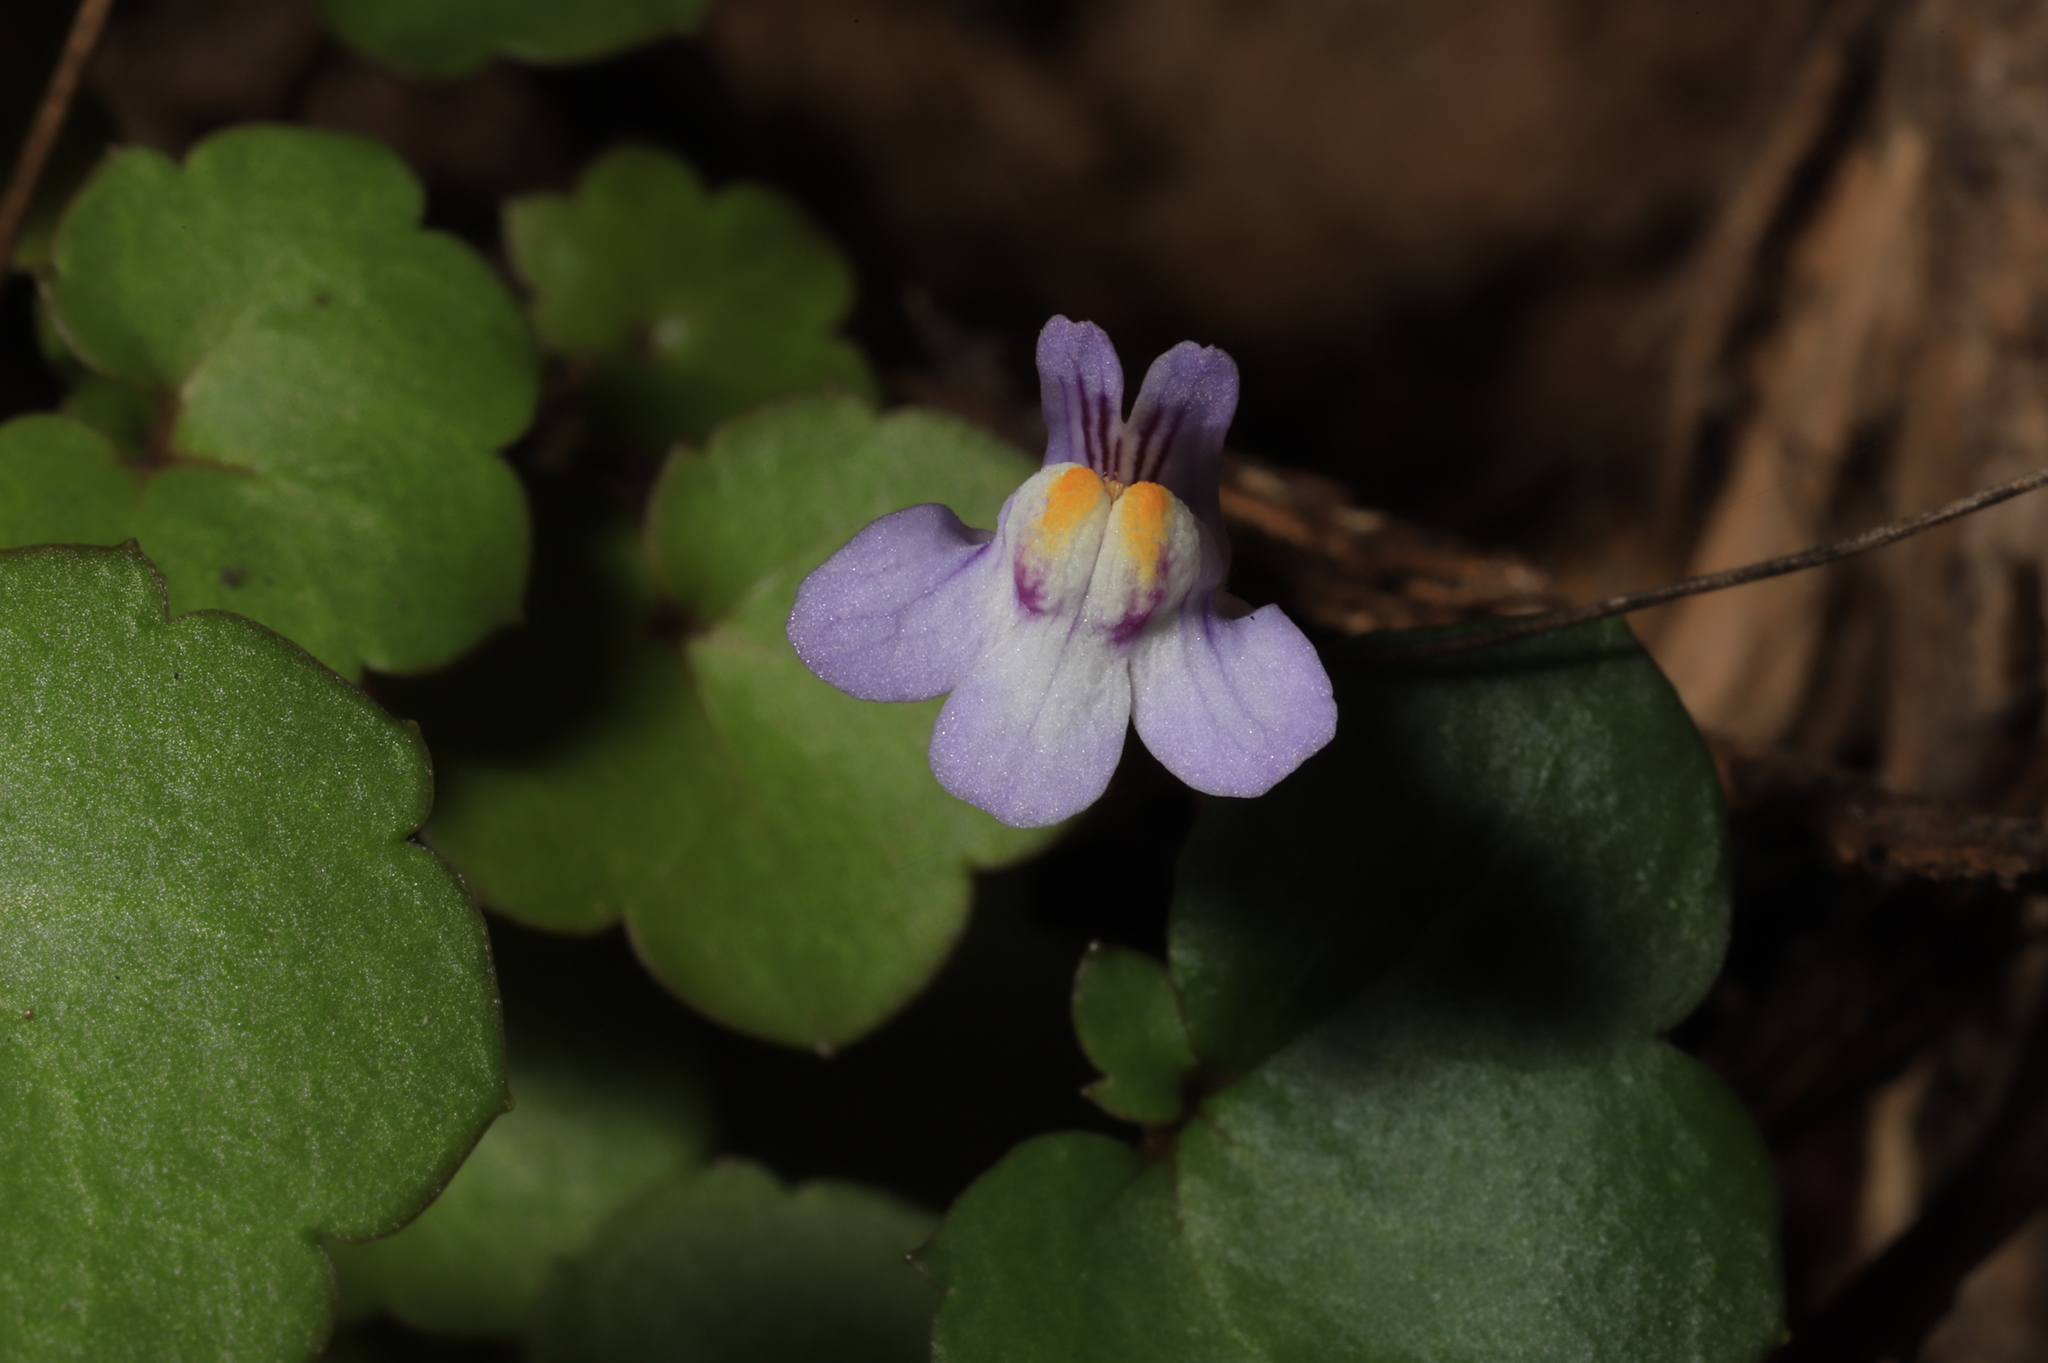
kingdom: Plantae
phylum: Tracheophyta
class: Magnoliopsida
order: Lamiales
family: Plantaginaceae
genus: Cymbalaria
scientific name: Cymbalaria muralis
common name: Ivy-leaved toadflax
